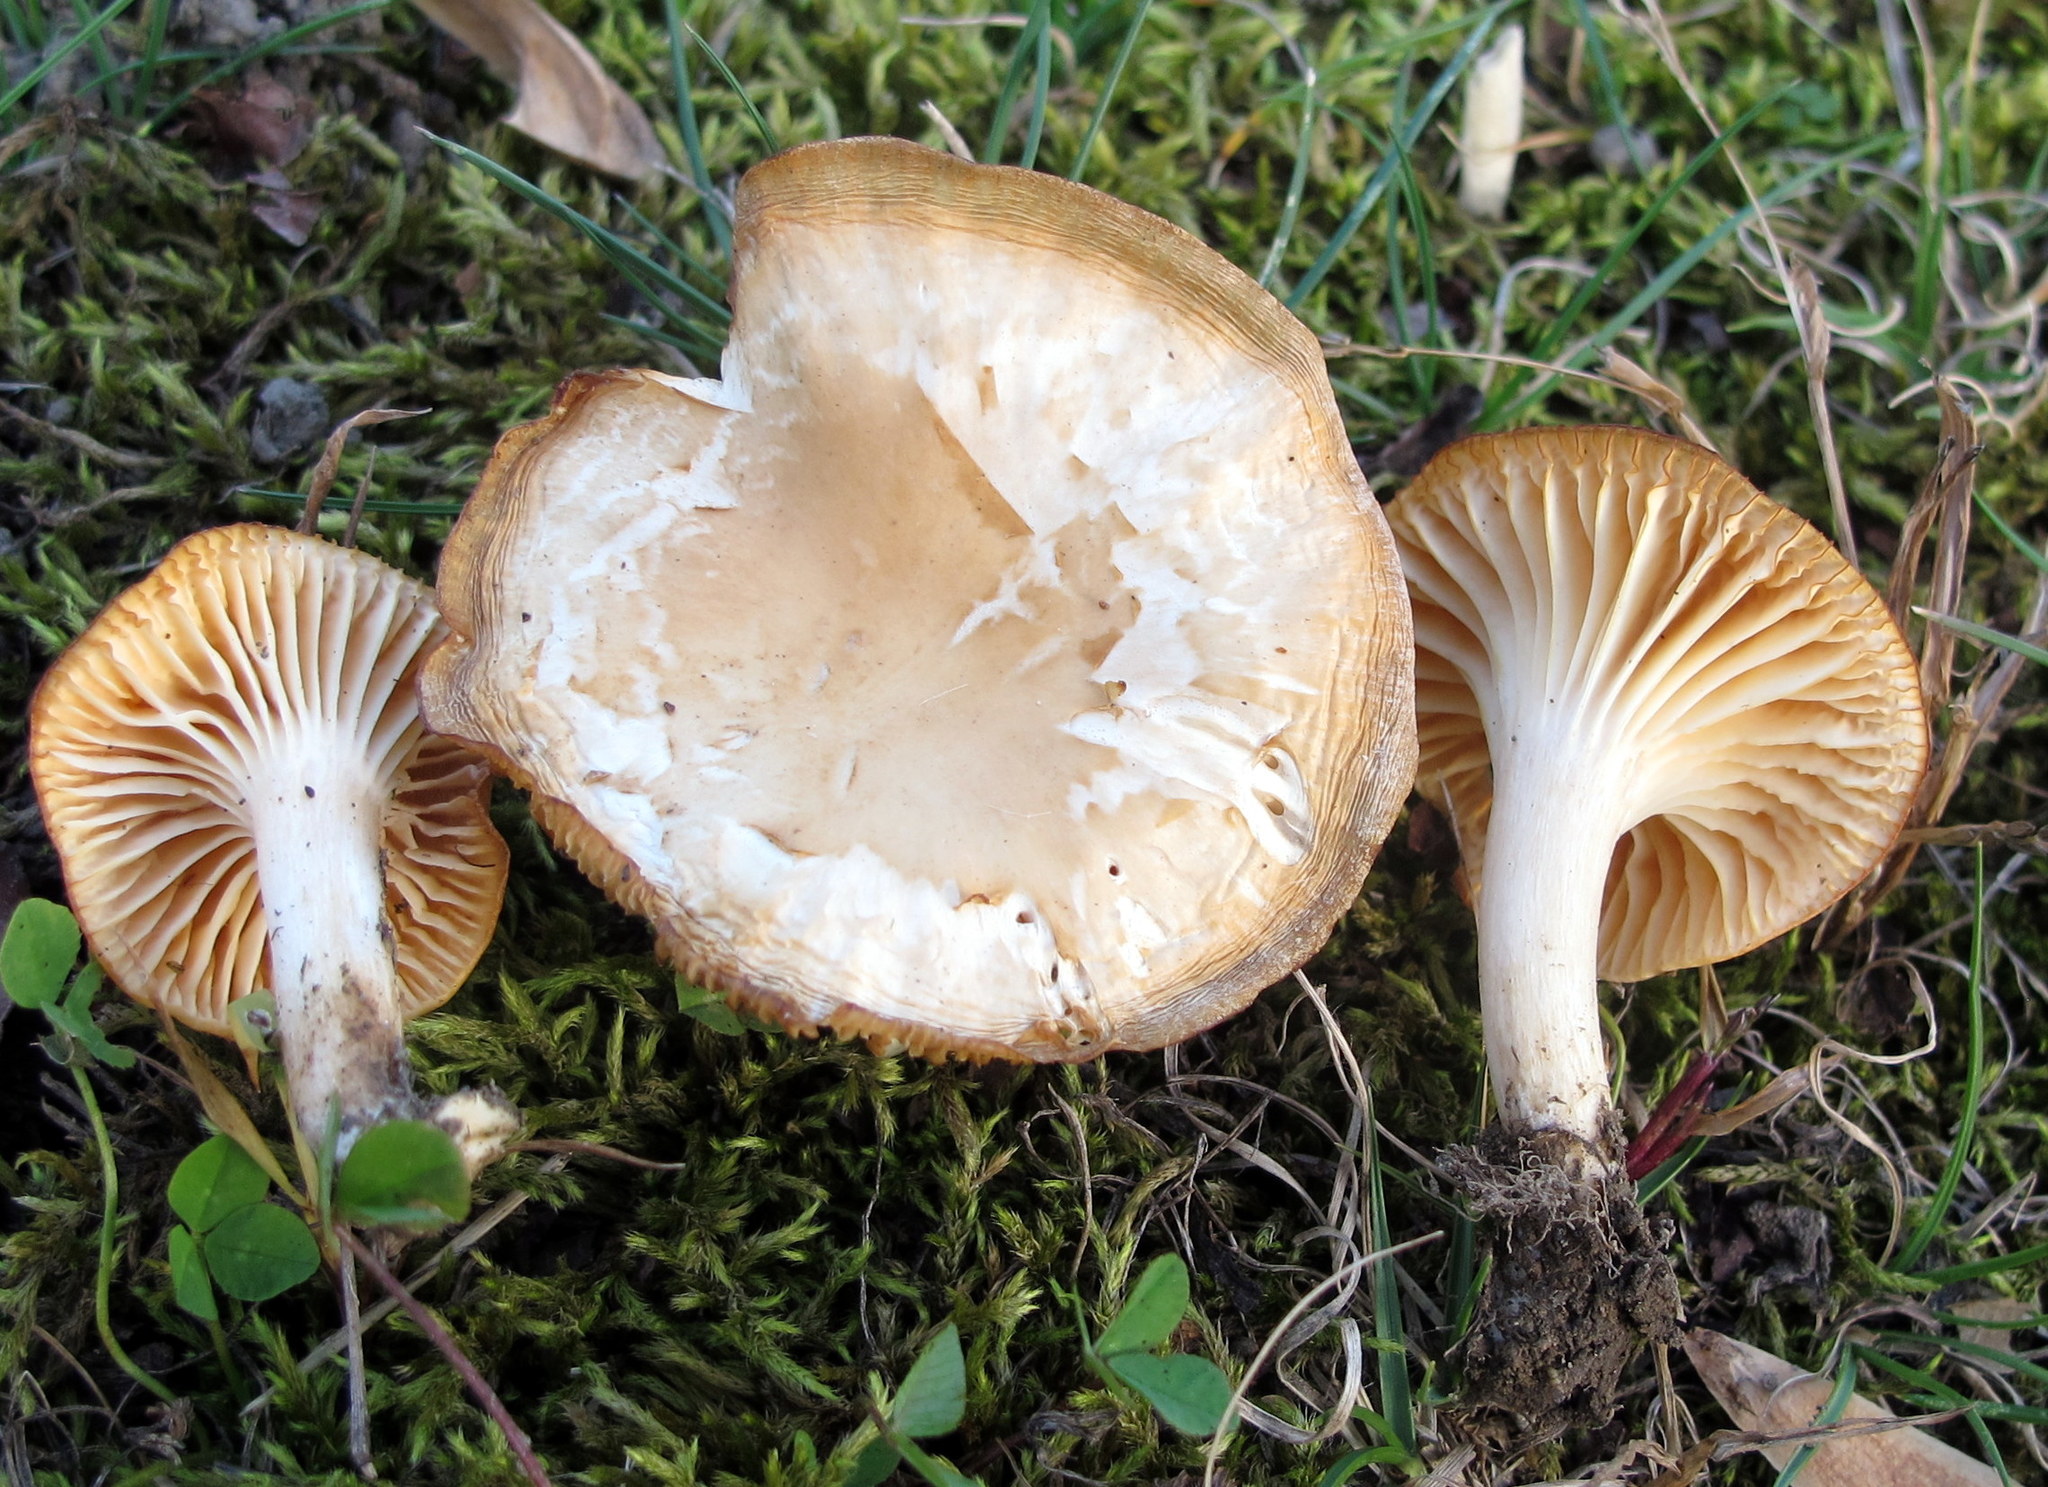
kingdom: Fungi
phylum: Basidiomycota
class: Agaricomycetes
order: Agaricales
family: Hygrophoraceae
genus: Cuphophyllus
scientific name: Cuphophyllus pratensis
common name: Meadow waxcap
